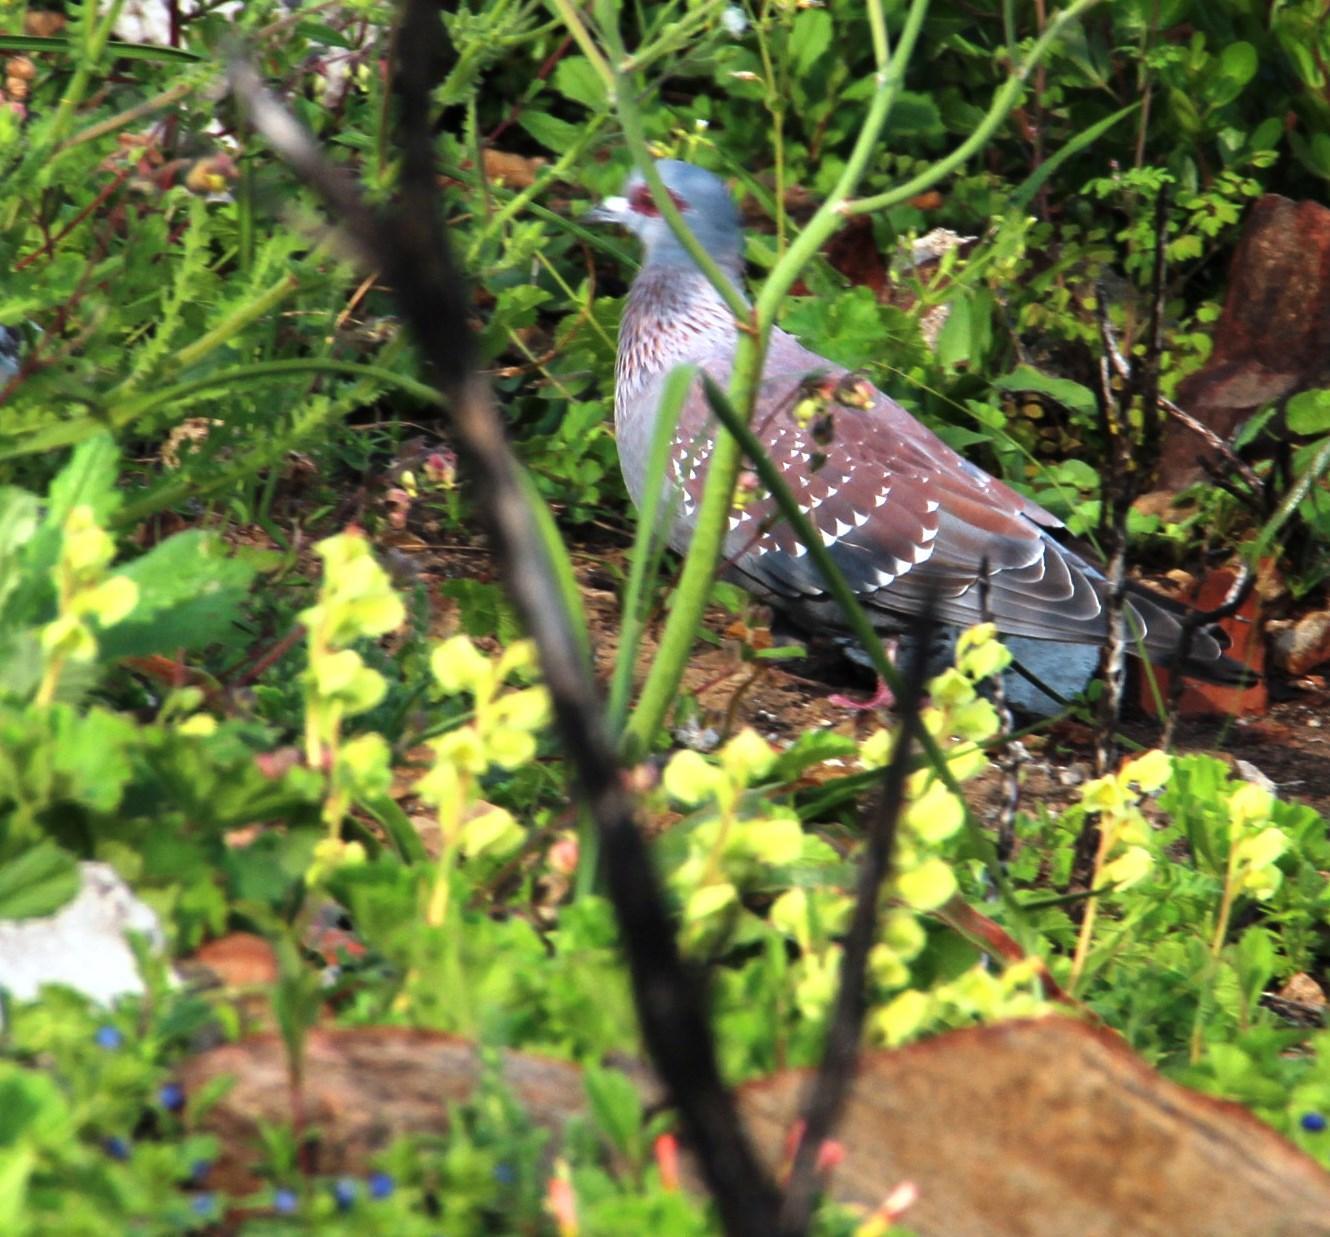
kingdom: Animalia
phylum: Chordata
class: Aves
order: Columbiformes
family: Columbidae
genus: Columba
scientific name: Columba guinea
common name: Speckled pigeon
